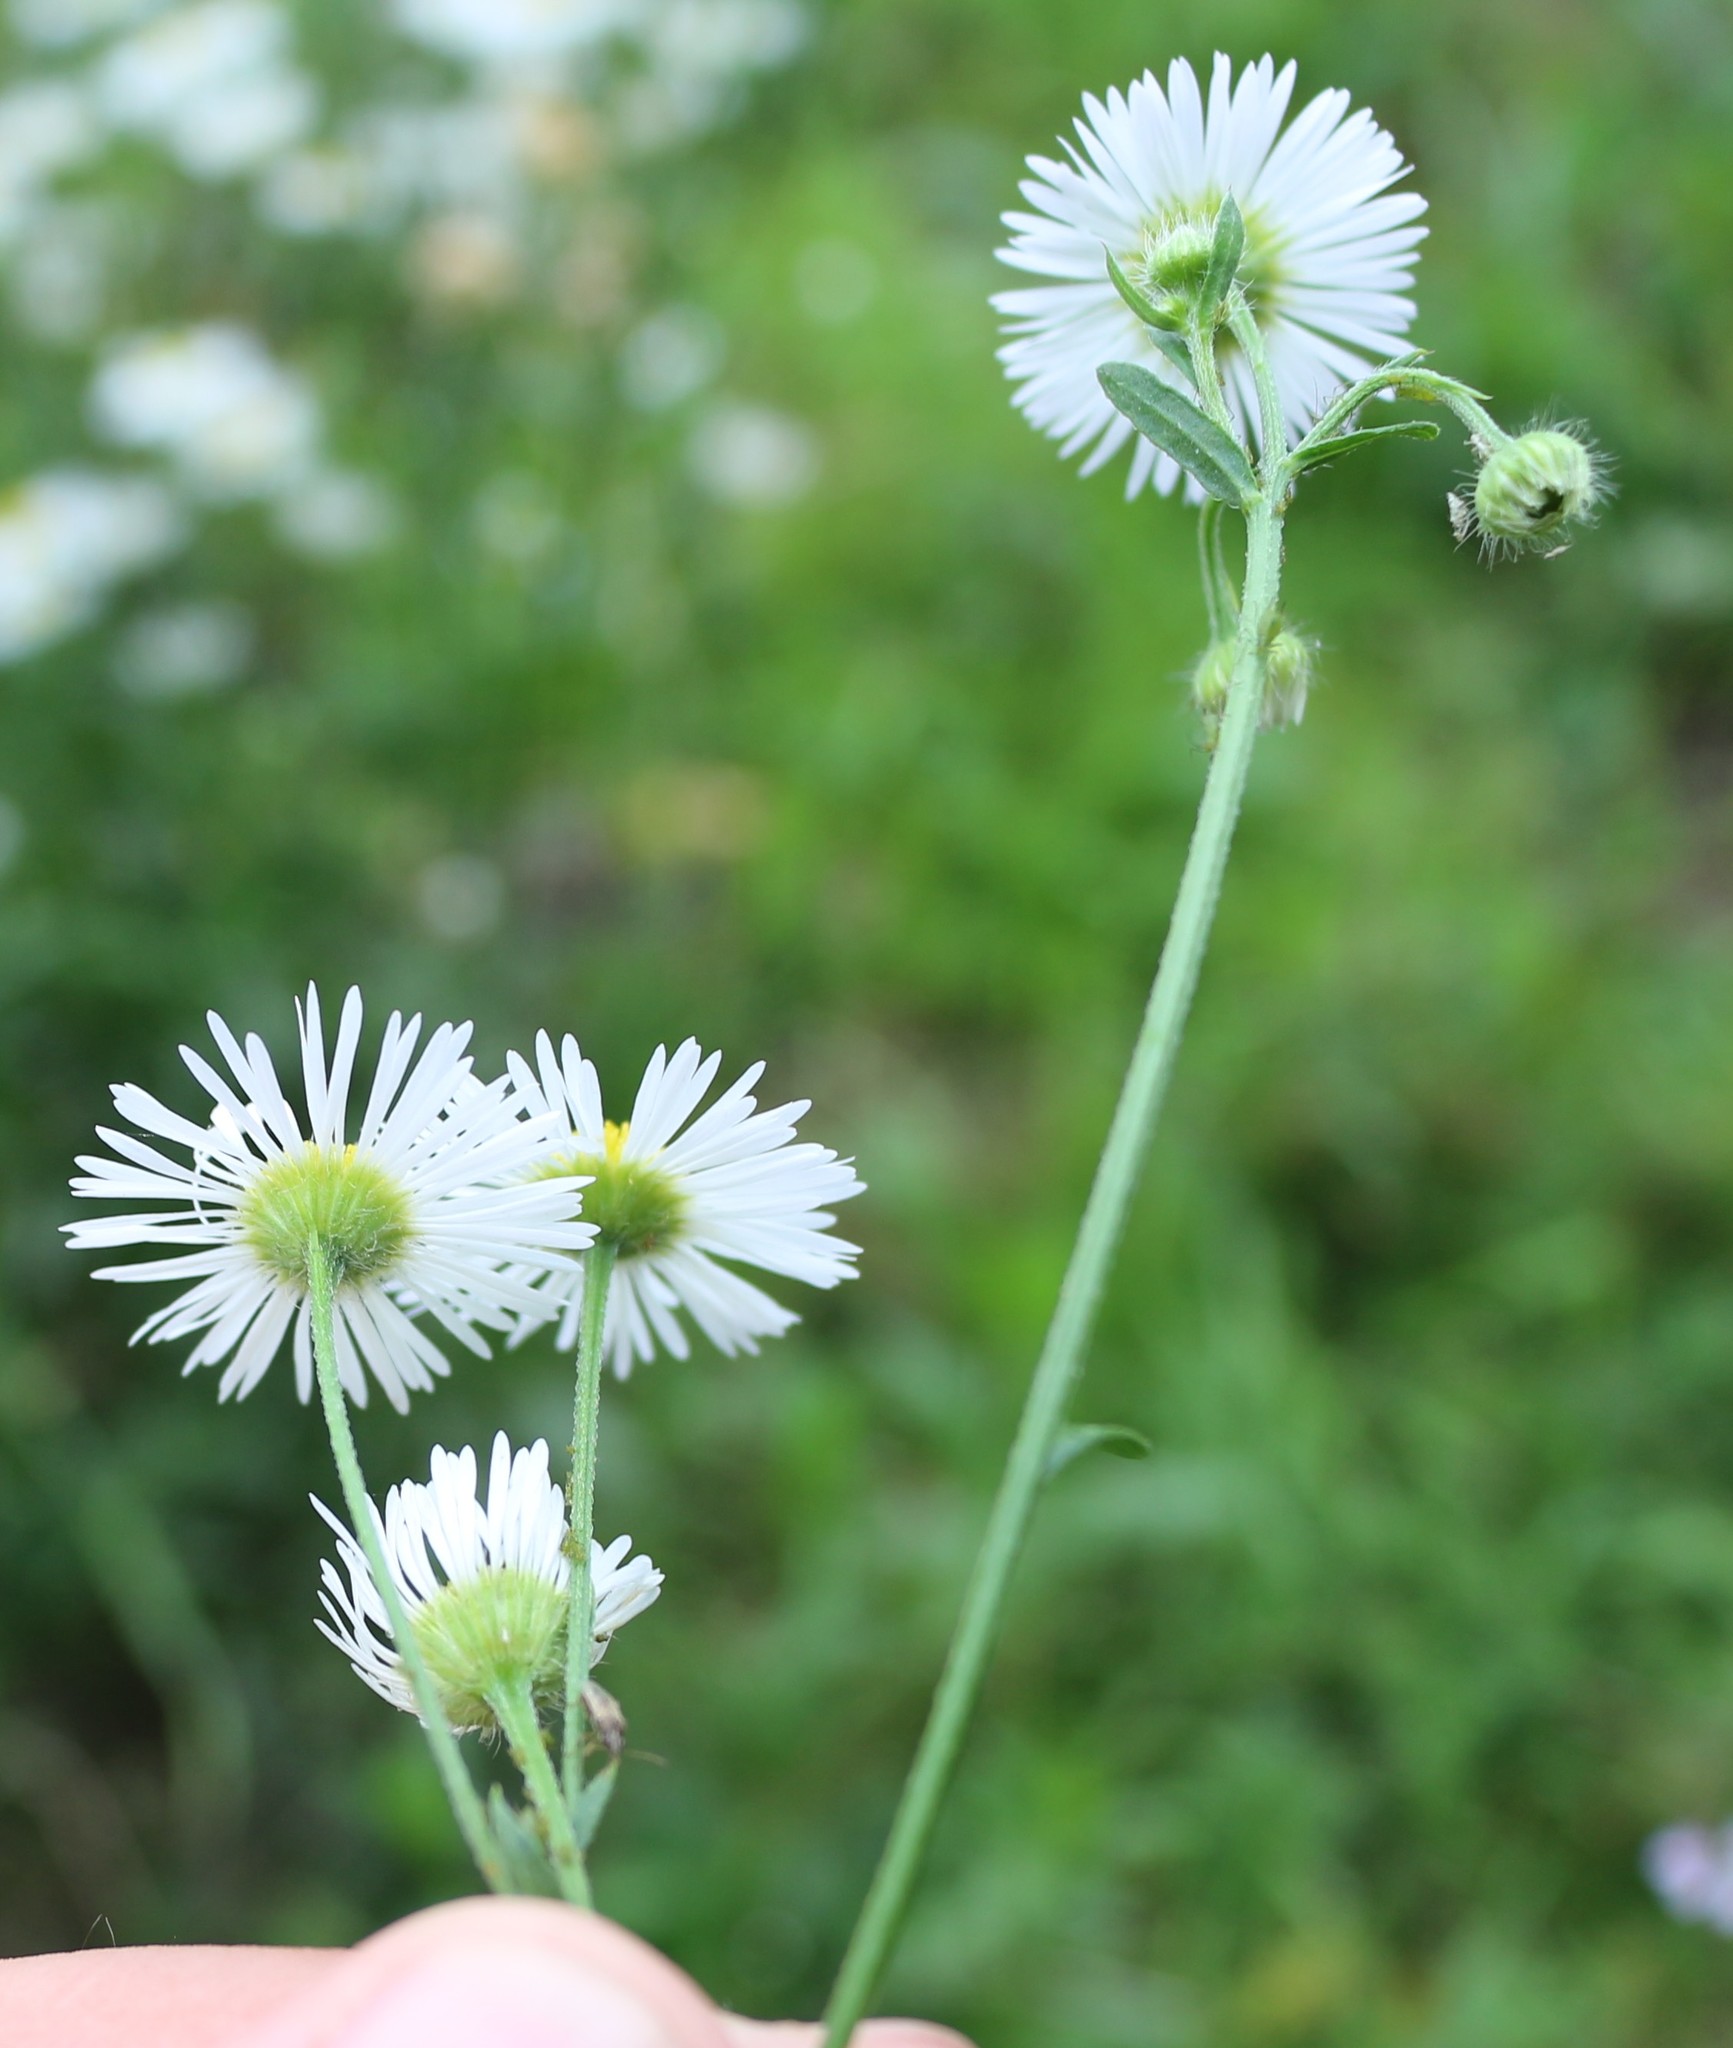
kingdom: Plantae
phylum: Tracheophyta
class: Magnoliopsida
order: Asterales
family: Asteraceae
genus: Erigeron
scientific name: Erigeron annuus
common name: Tall fleabane
